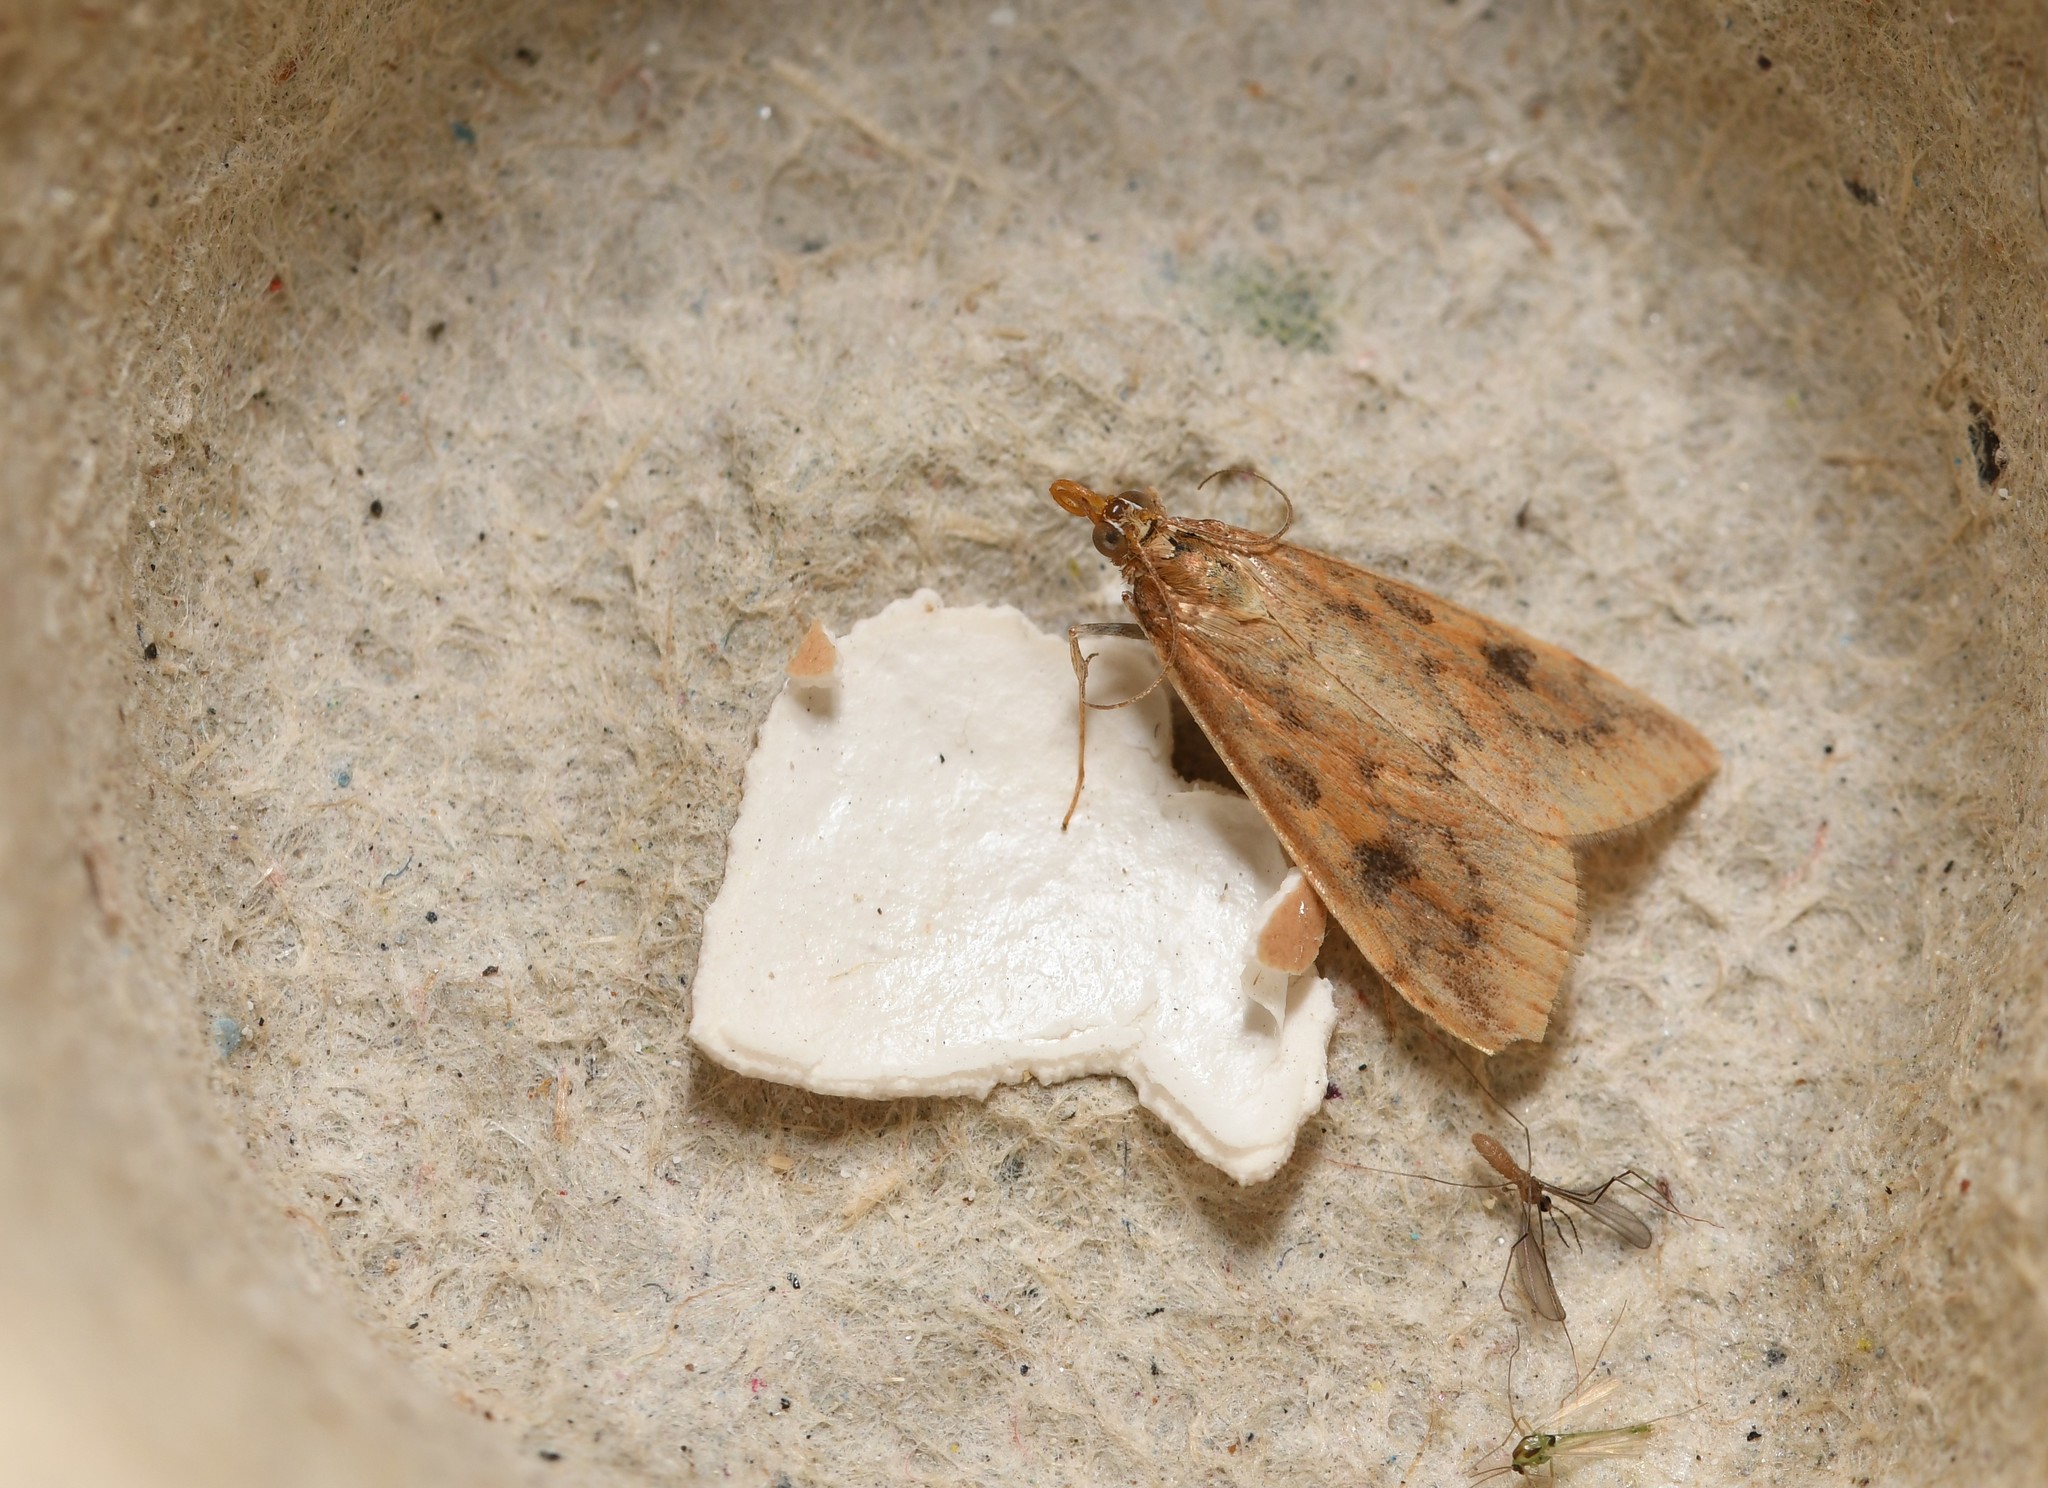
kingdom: Animalia
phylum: Arthropoda
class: Insecta
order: Lepidoptera
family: Crambidae
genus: Udea
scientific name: Udea numeralis
